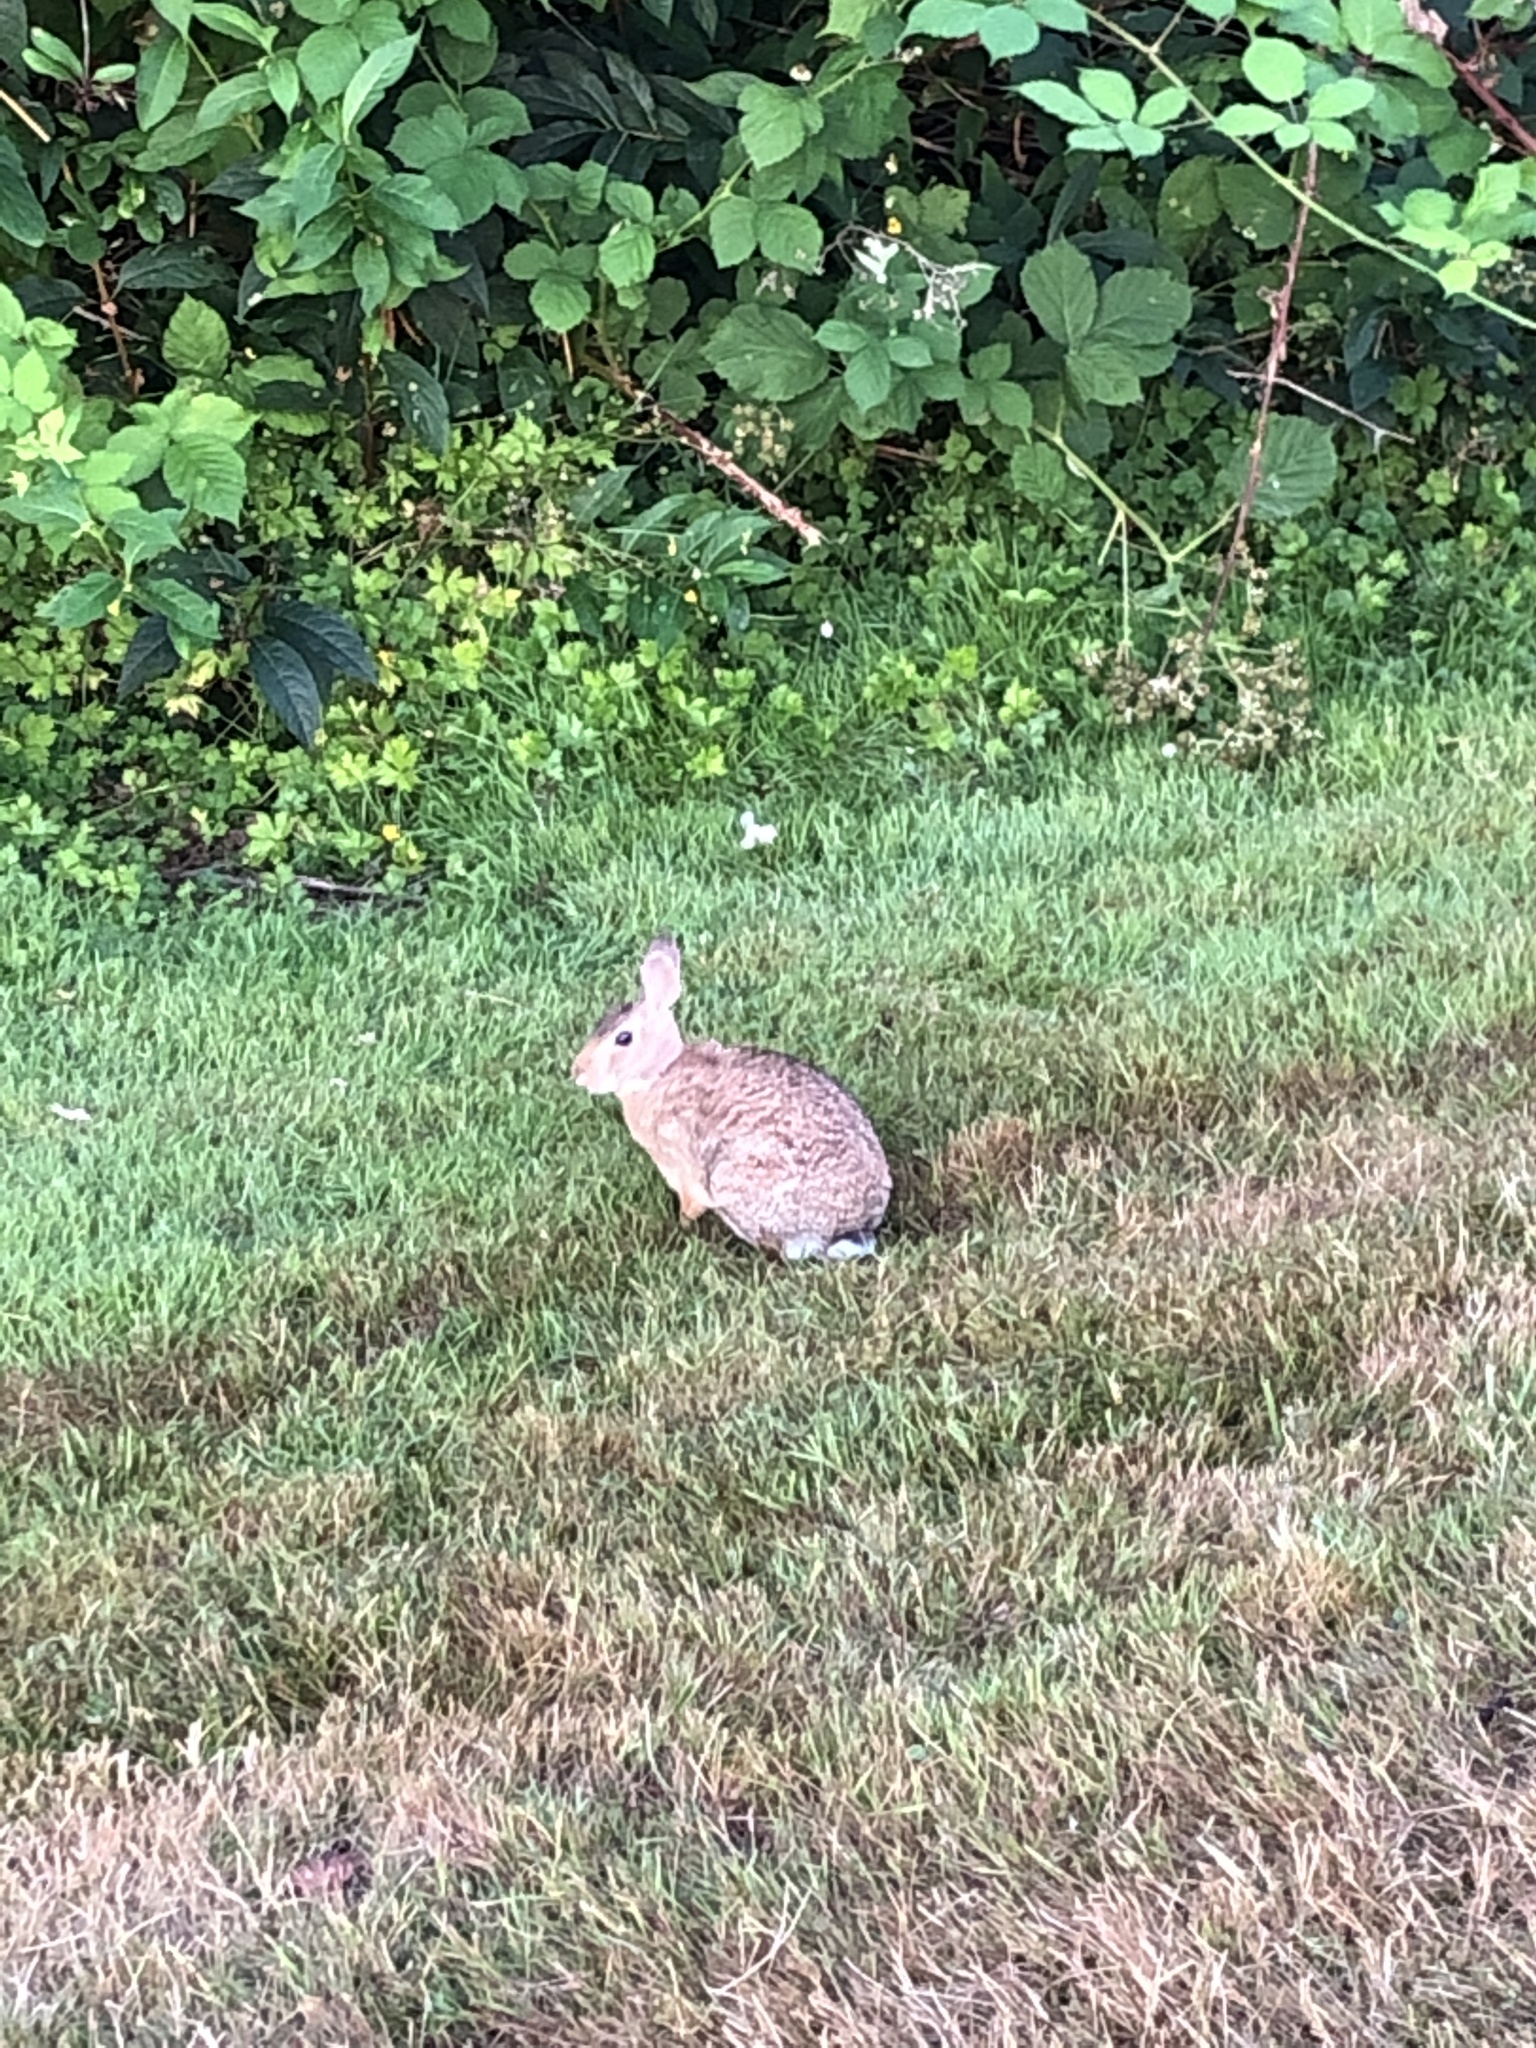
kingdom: Animalia
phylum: Chordata
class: Mammalia
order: Lagomorpha
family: Leporidae
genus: Sylvilagus
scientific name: Sylvilagus floridanus
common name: Eastern cottontail
